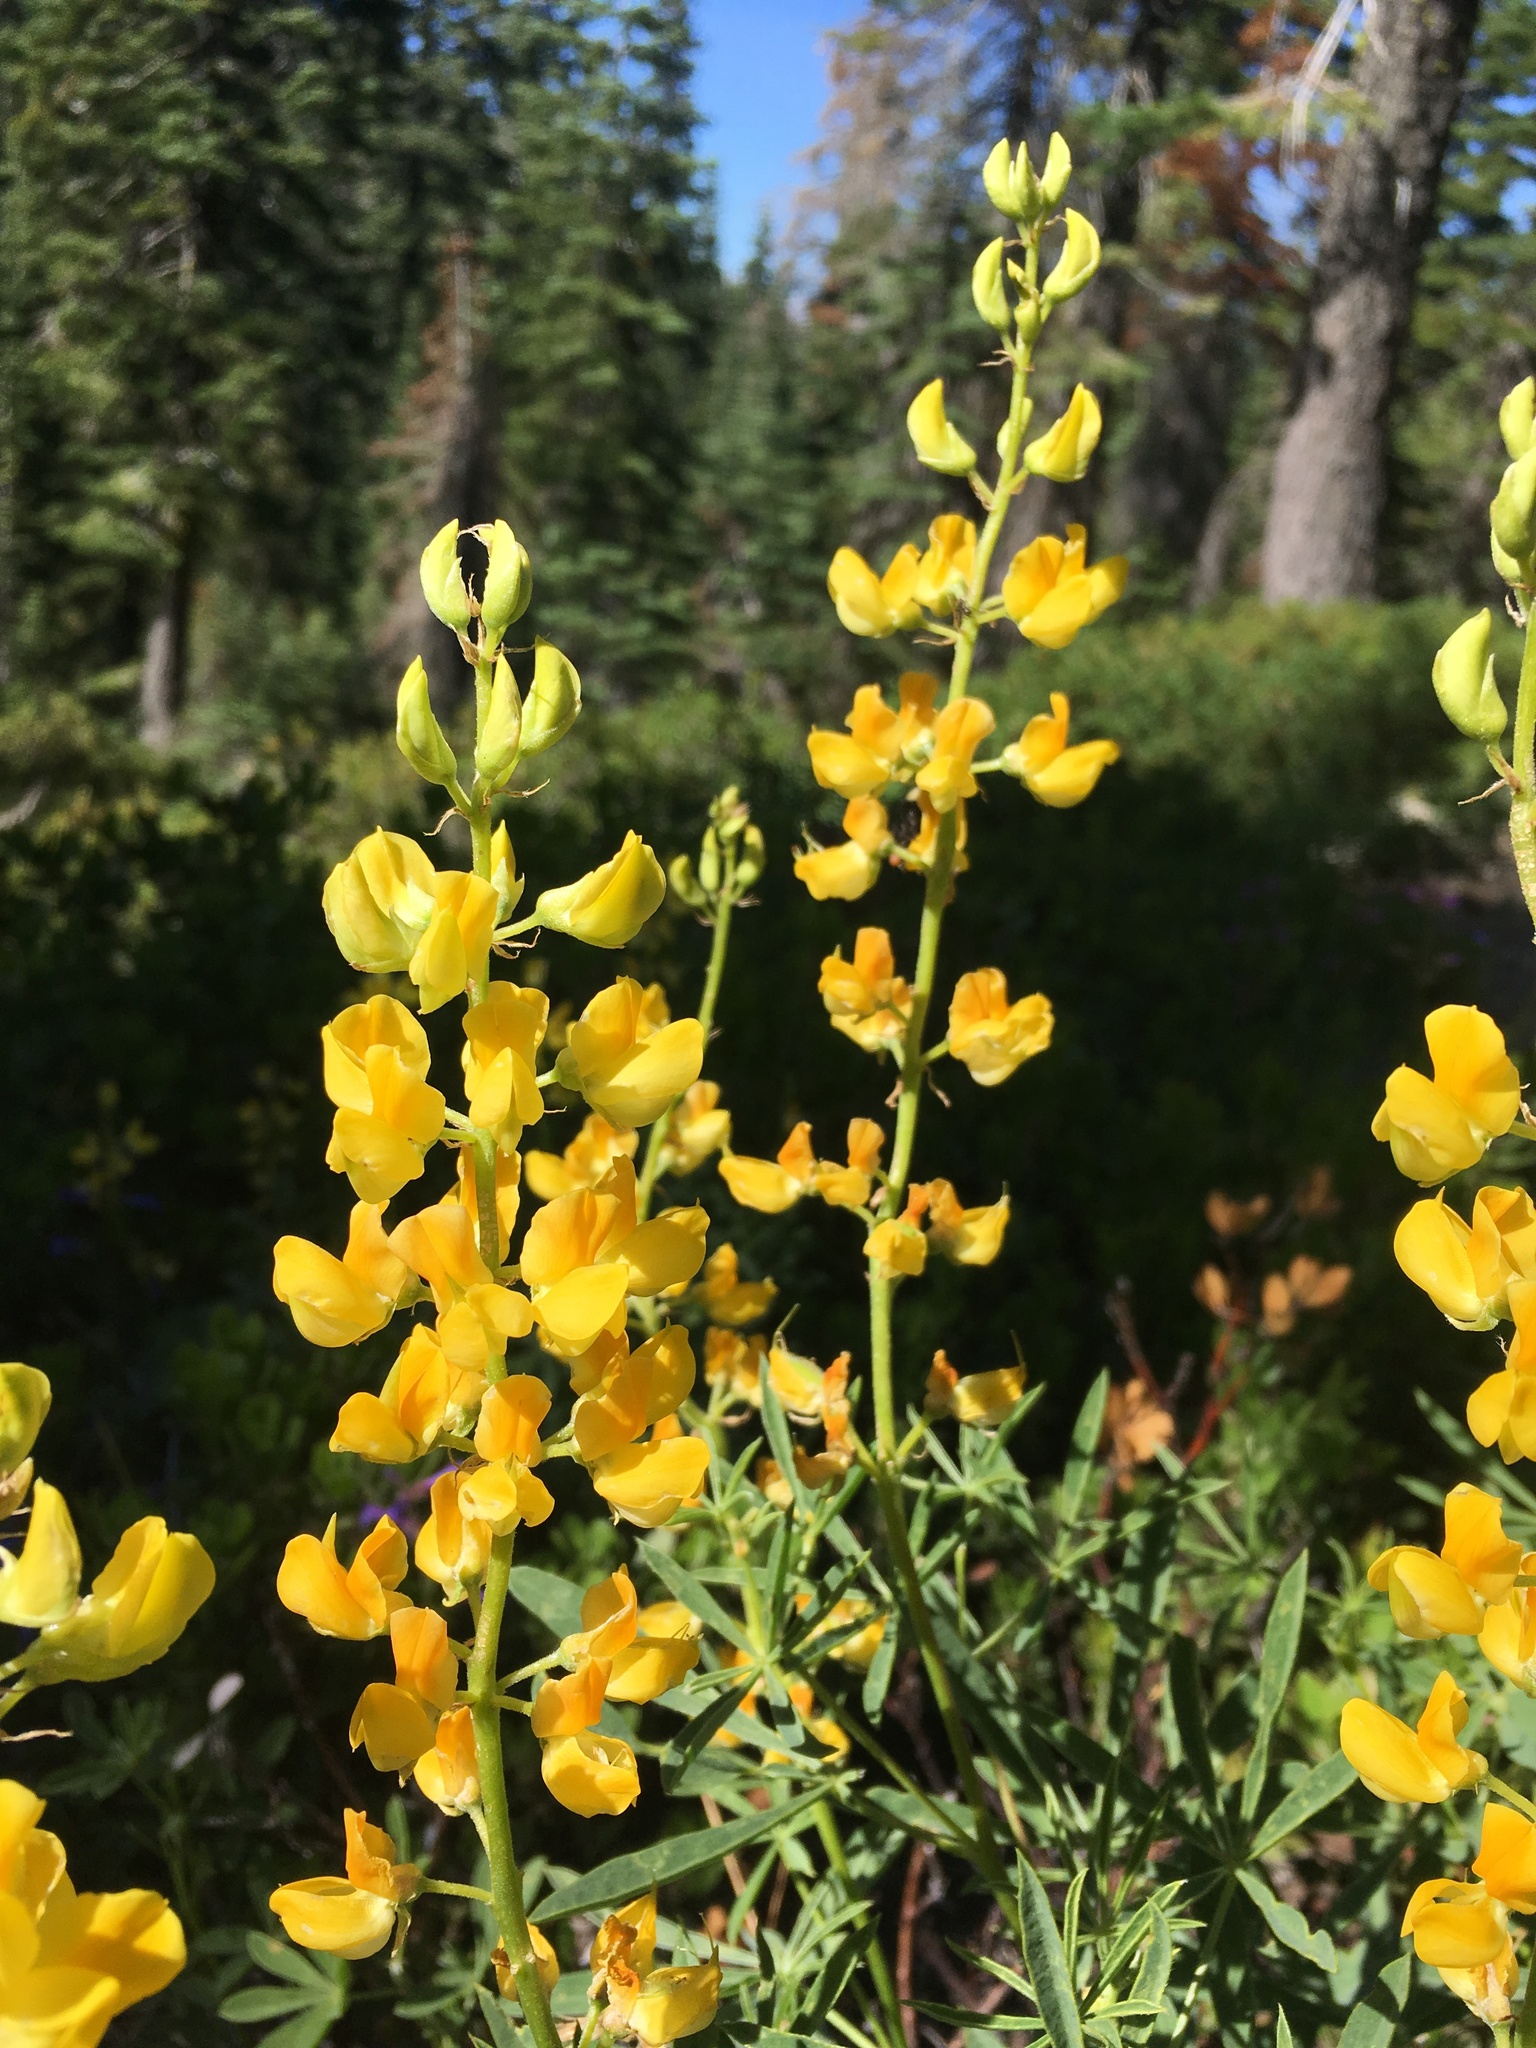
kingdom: Plantae
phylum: Tracheophyta
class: Magnoliopsida
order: Fabales
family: Fabaceae
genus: Lupinus
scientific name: Lupinus croceus
